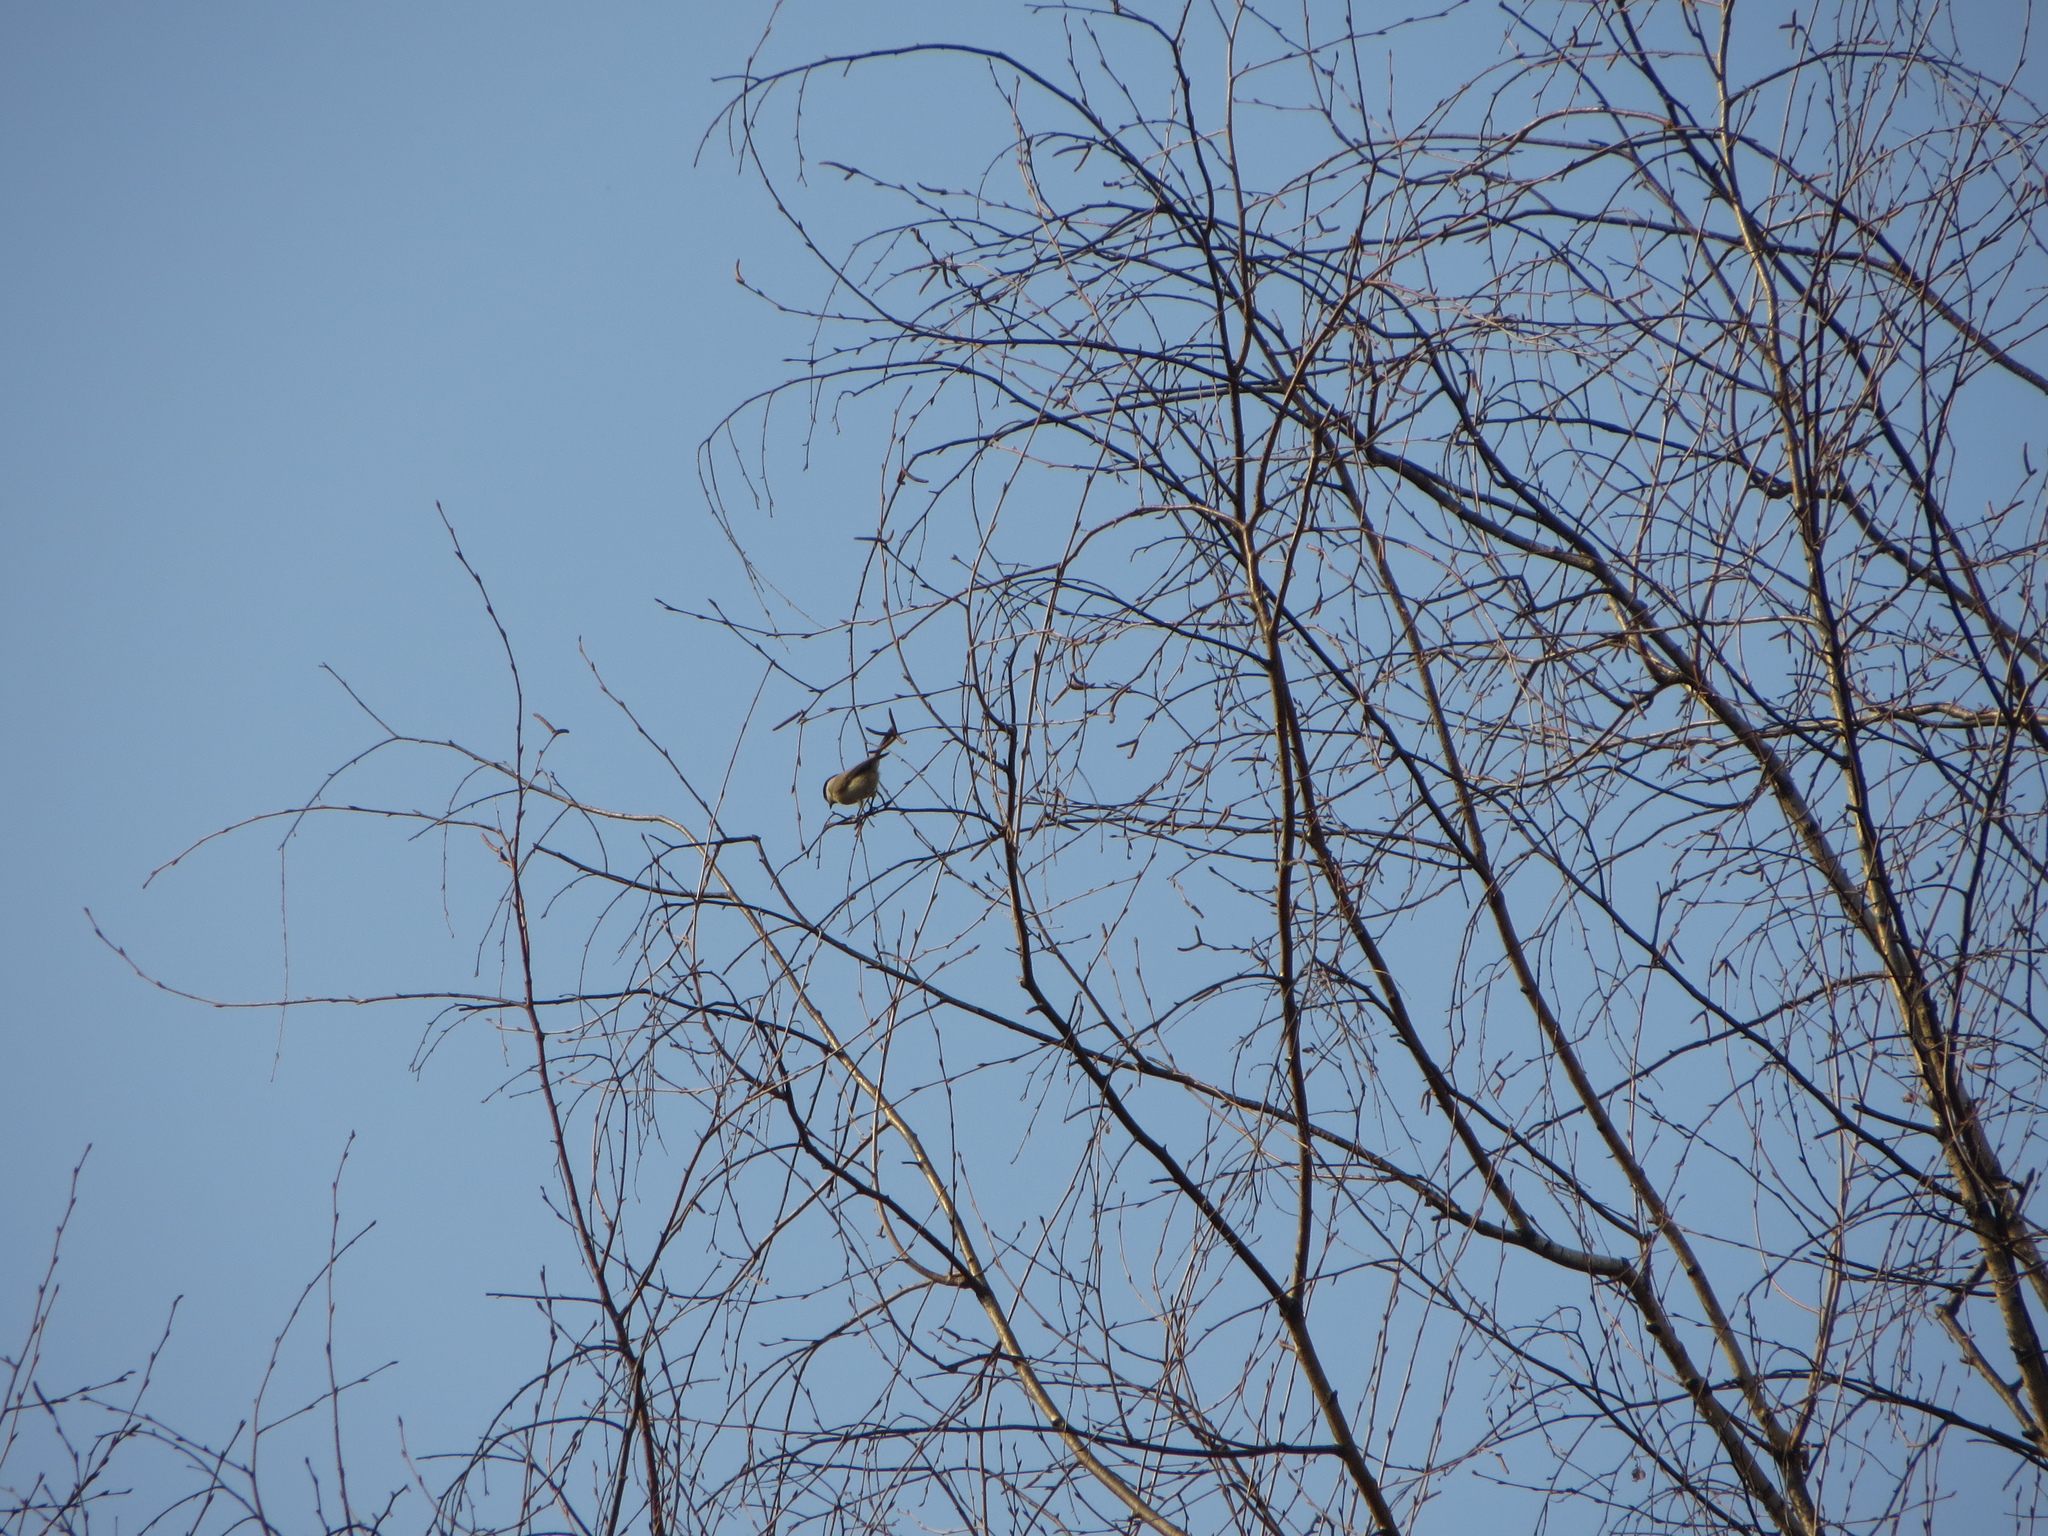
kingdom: Animalia
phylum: Chordata
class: Aves
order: Passeriformes
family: Paridae
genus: Poecile
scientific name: Poecile palustris
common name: Marsh tit
